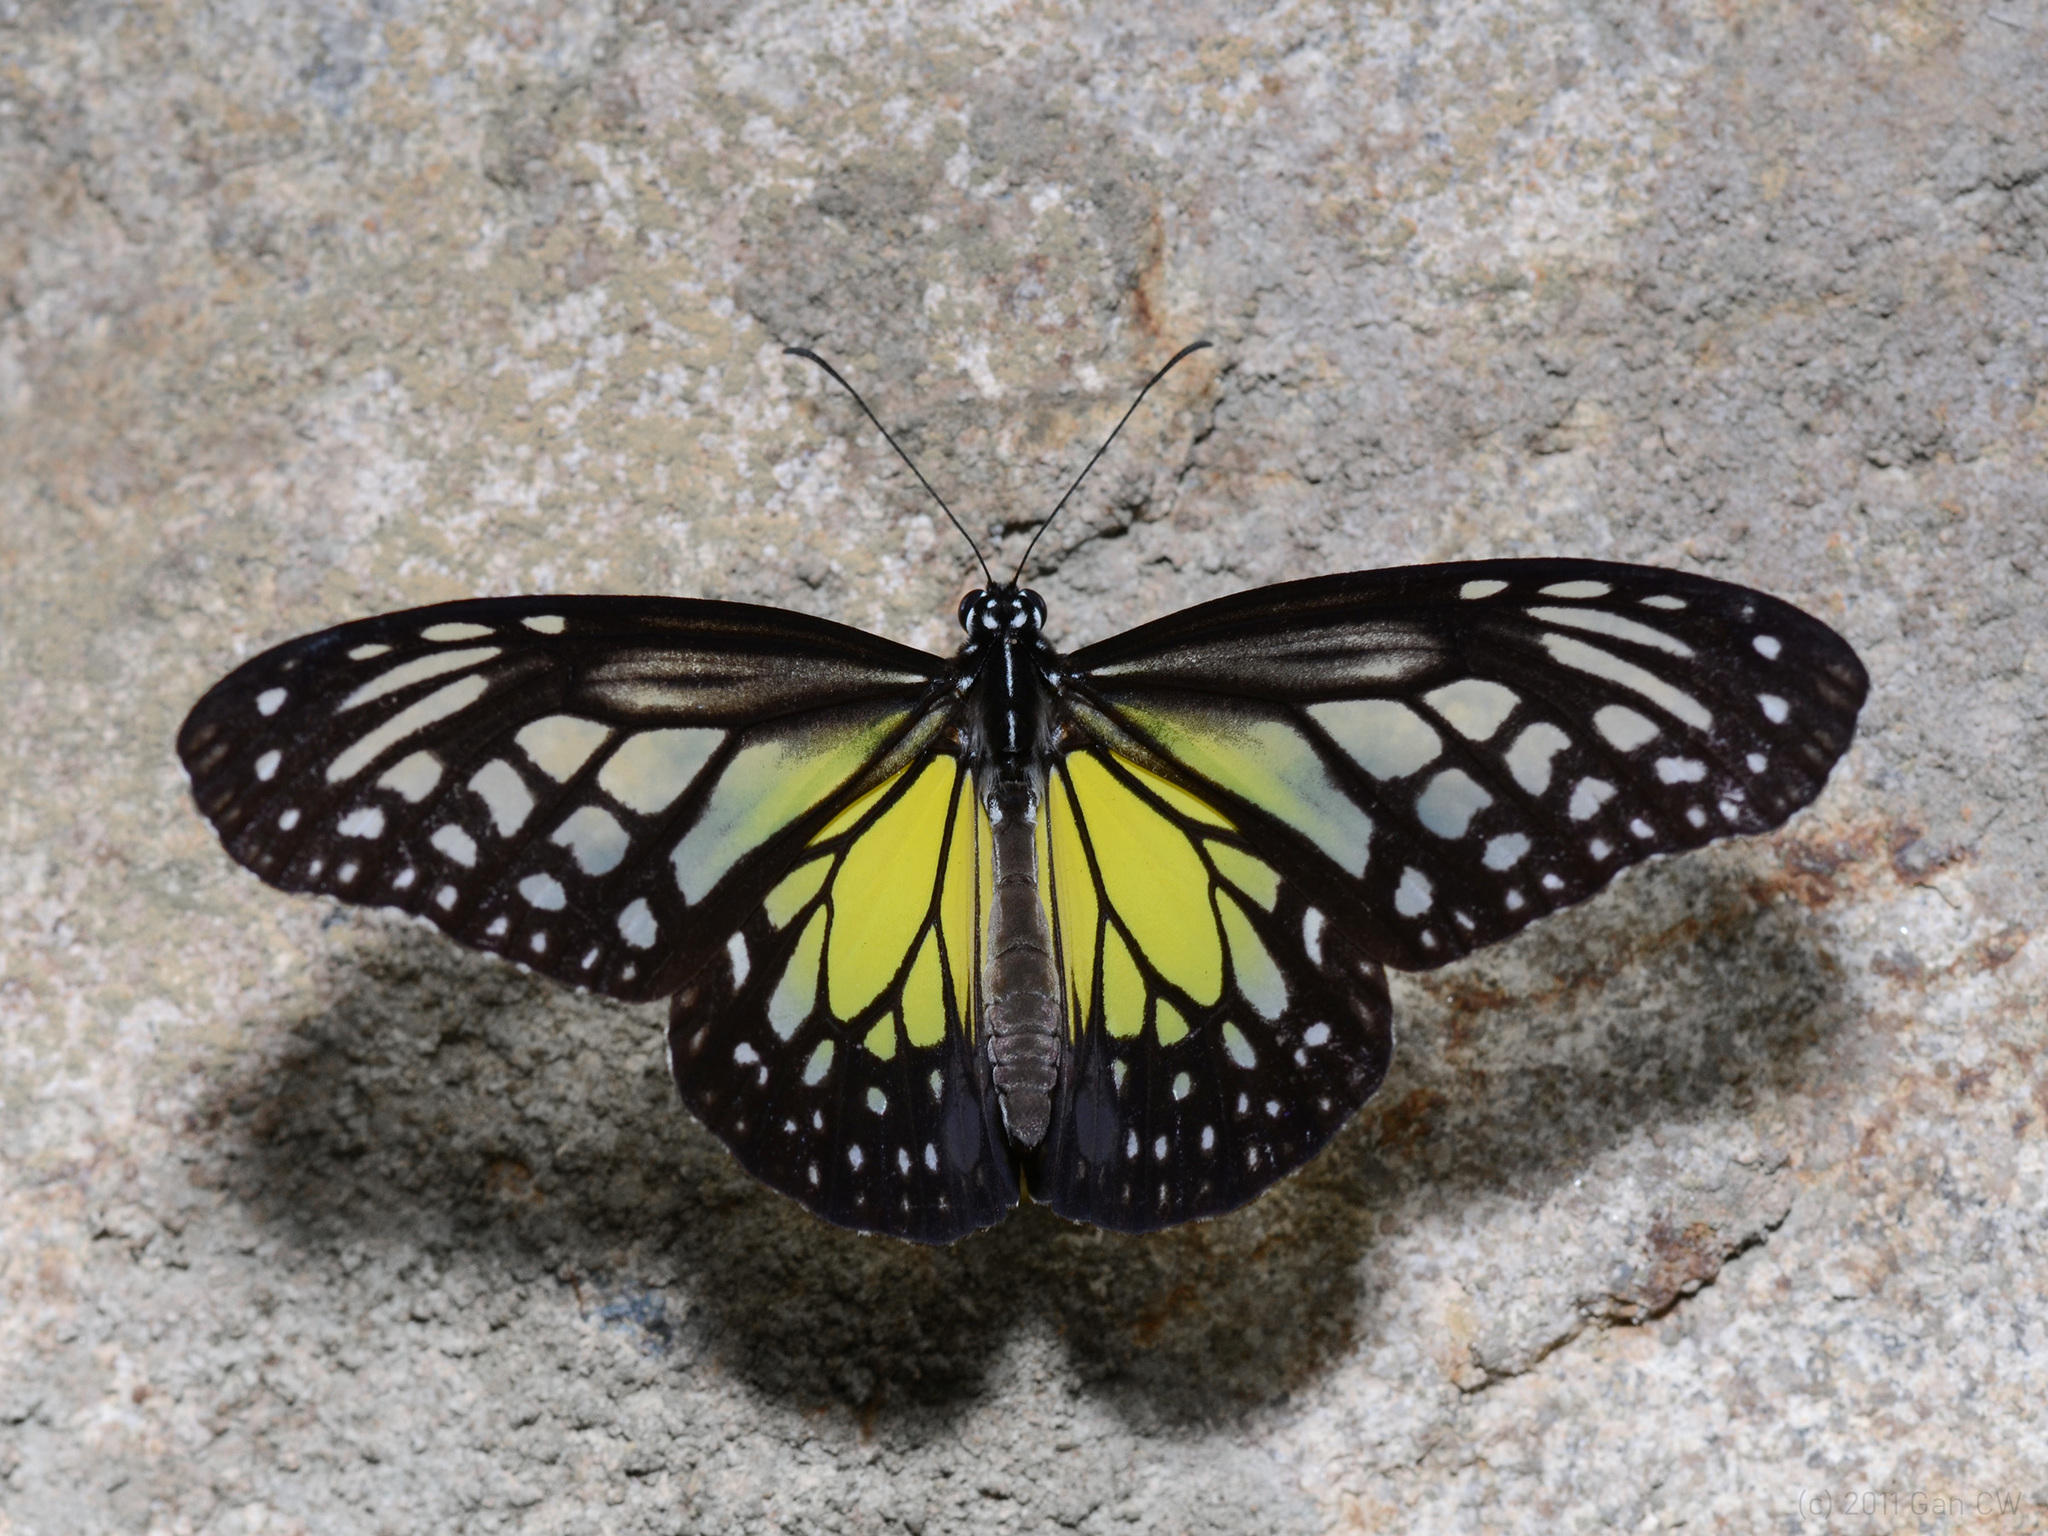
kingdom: Animalia
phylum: Arthropoda
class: Insecta
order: Lepidoptera
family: Nymphalidae
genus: Parantica
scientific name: Parantica aspasia
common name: Yellow glassy tiger
